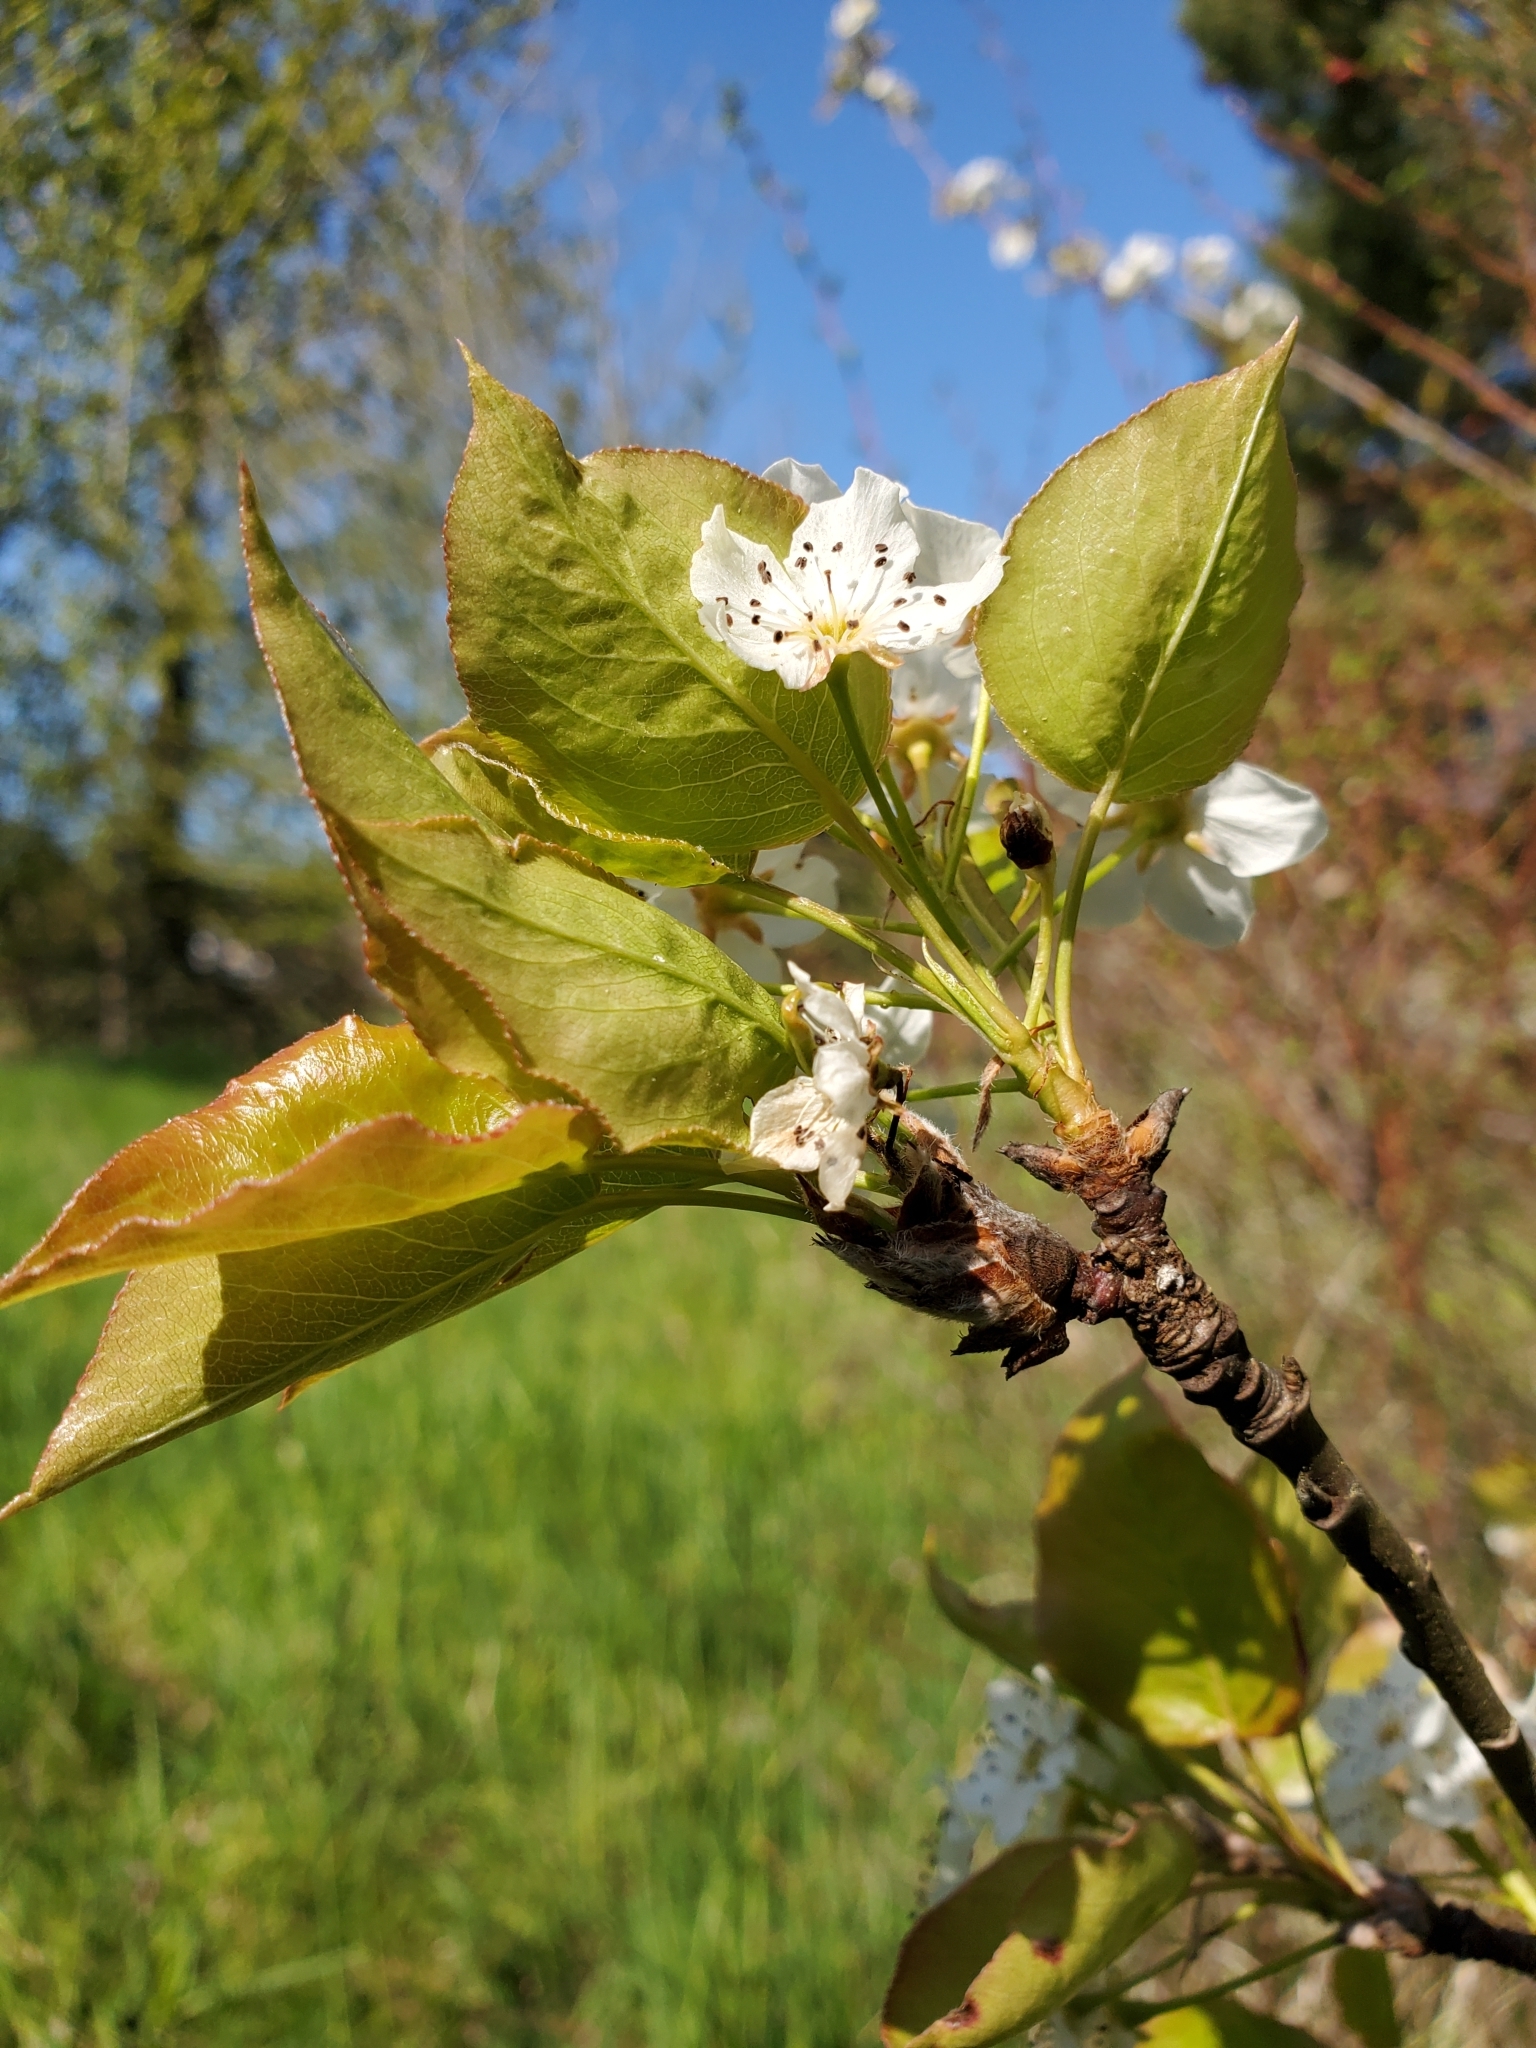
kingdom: Plantae
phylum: Tracheophyta
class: Magnoliopsida
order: Rosales
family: Rosaceae
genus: Pyrus
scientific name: Pyrus communis
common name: Pear
